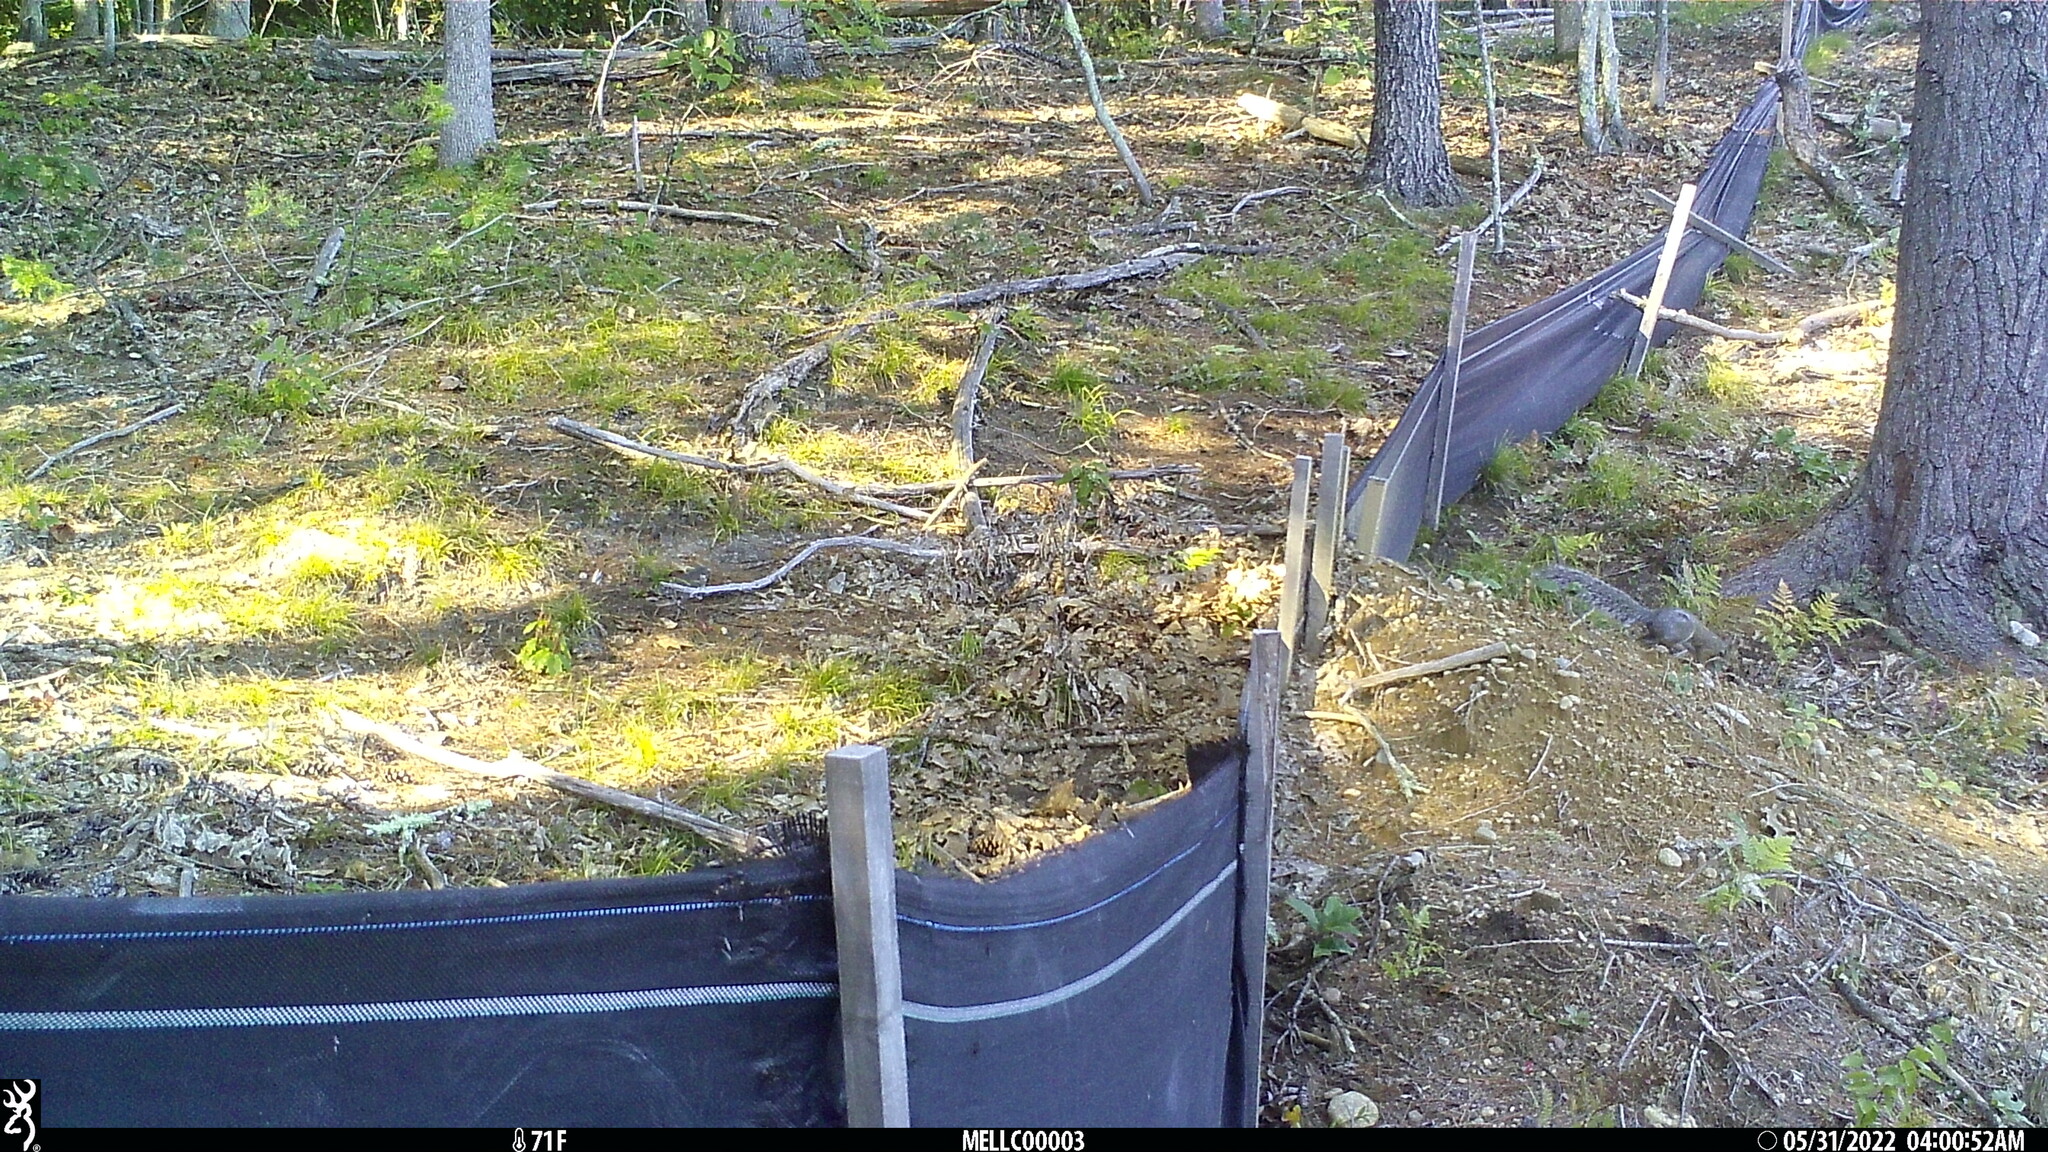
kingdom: Animalia
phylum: Chordata
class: Mammalia
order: Rodentia
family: Sciuridae
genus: Sciurus
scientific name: Sciurus carolinensis
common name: Eastern gray squirrel
